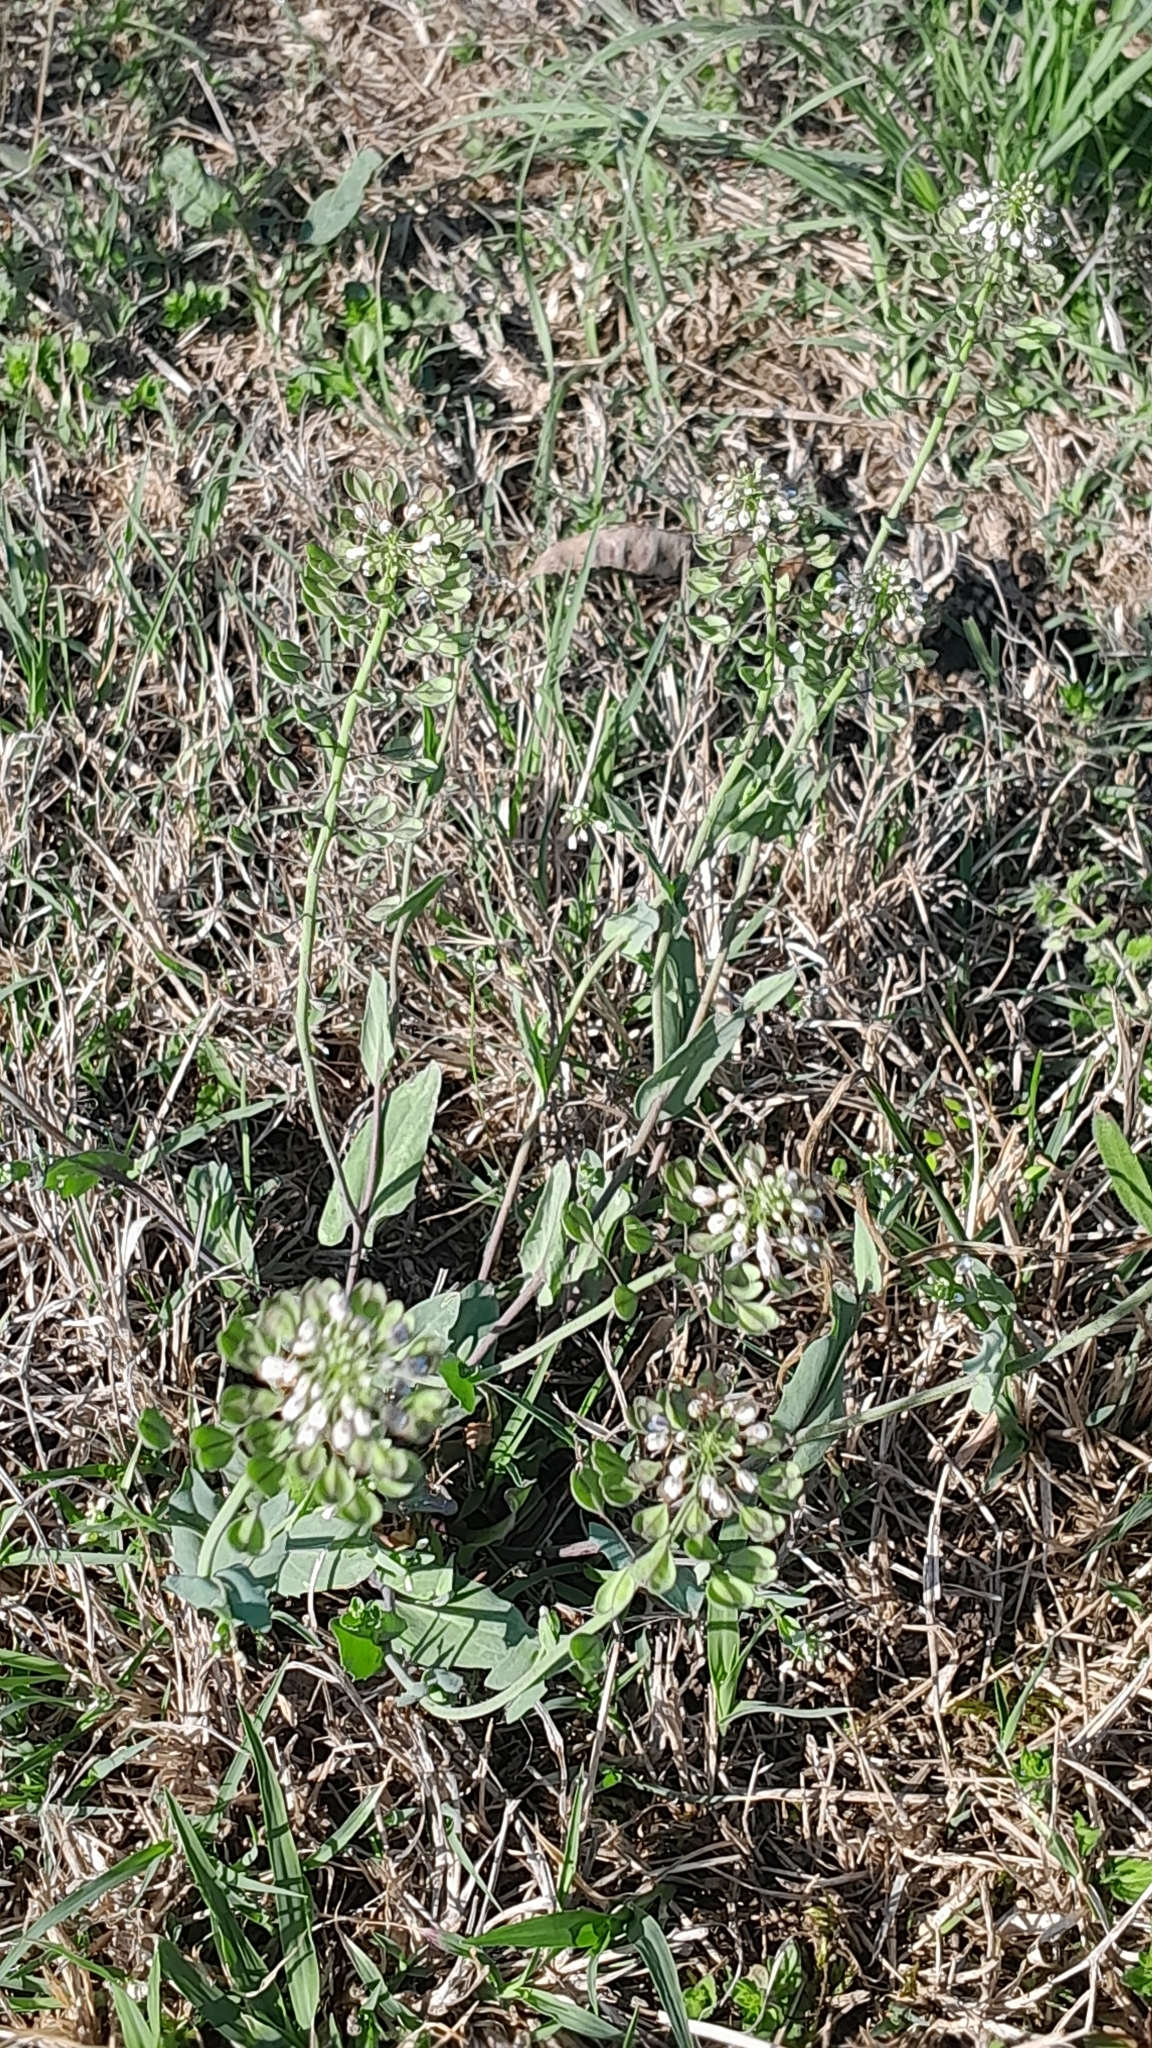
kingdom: Plantae
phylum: Tracheophyta
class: Magnoliopsida
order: Brassicales
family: Brassicaceae
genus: Noccaea
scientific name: Noccaea perfoliata
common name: Perfoliate pennycress
